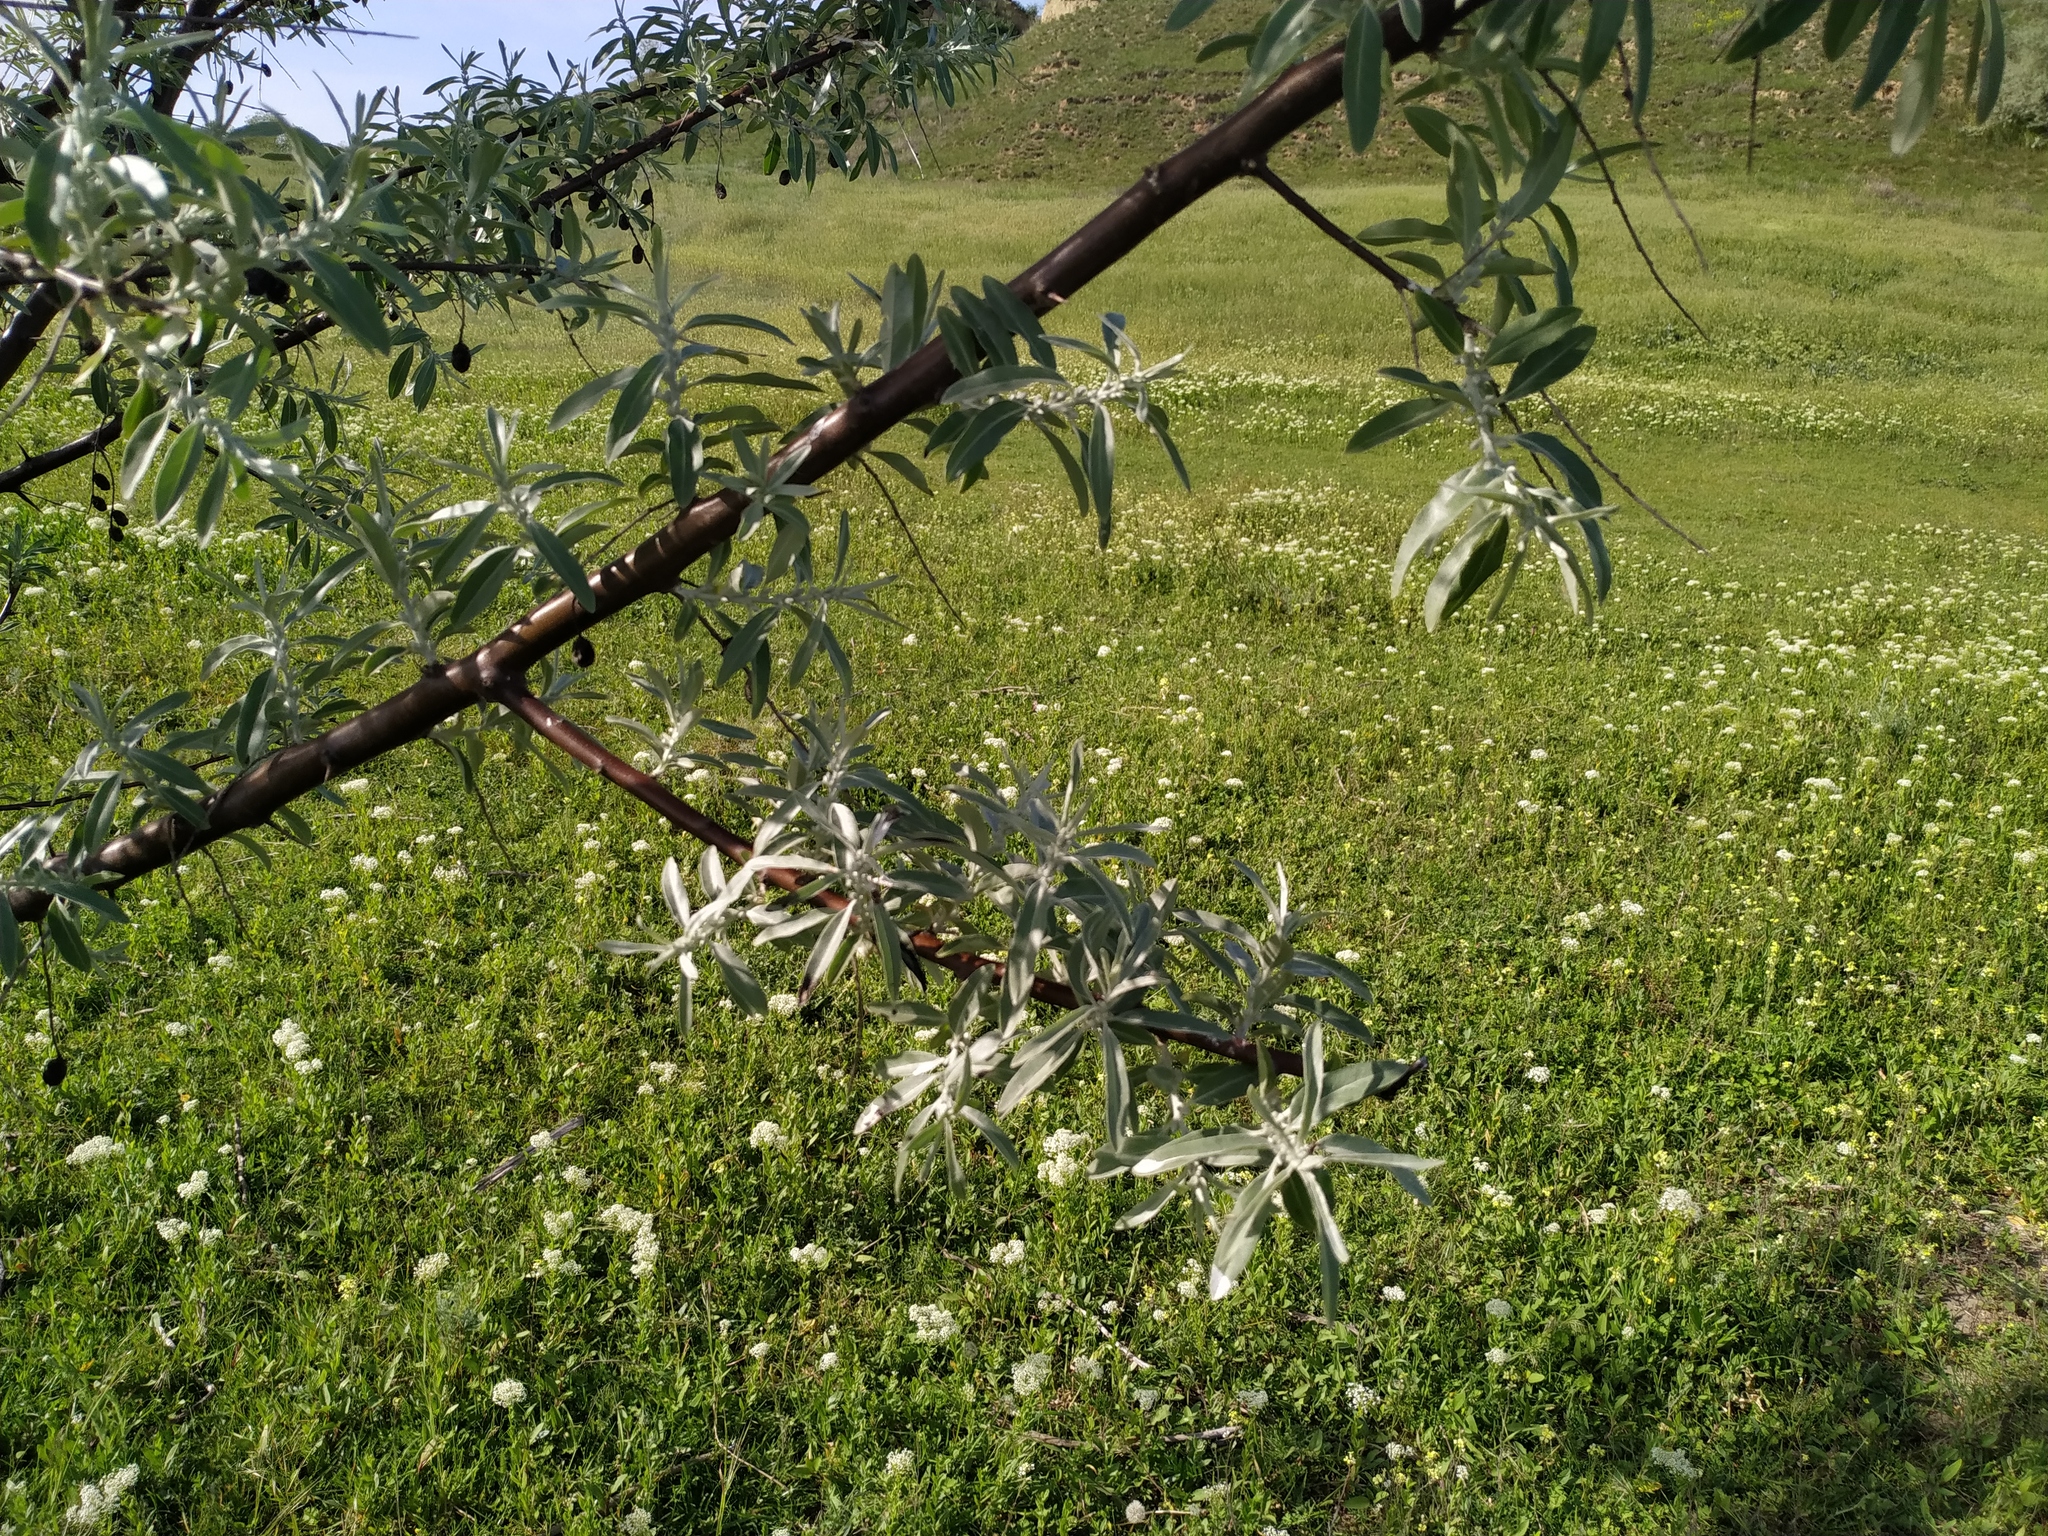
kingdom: Plantae
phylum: Tracheophyta
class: Magnoliopsida
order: Rosales
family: Elaeagnaceae
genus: Elaeagnus
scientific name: Elaeagnus angustifolia
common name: Russian olive
